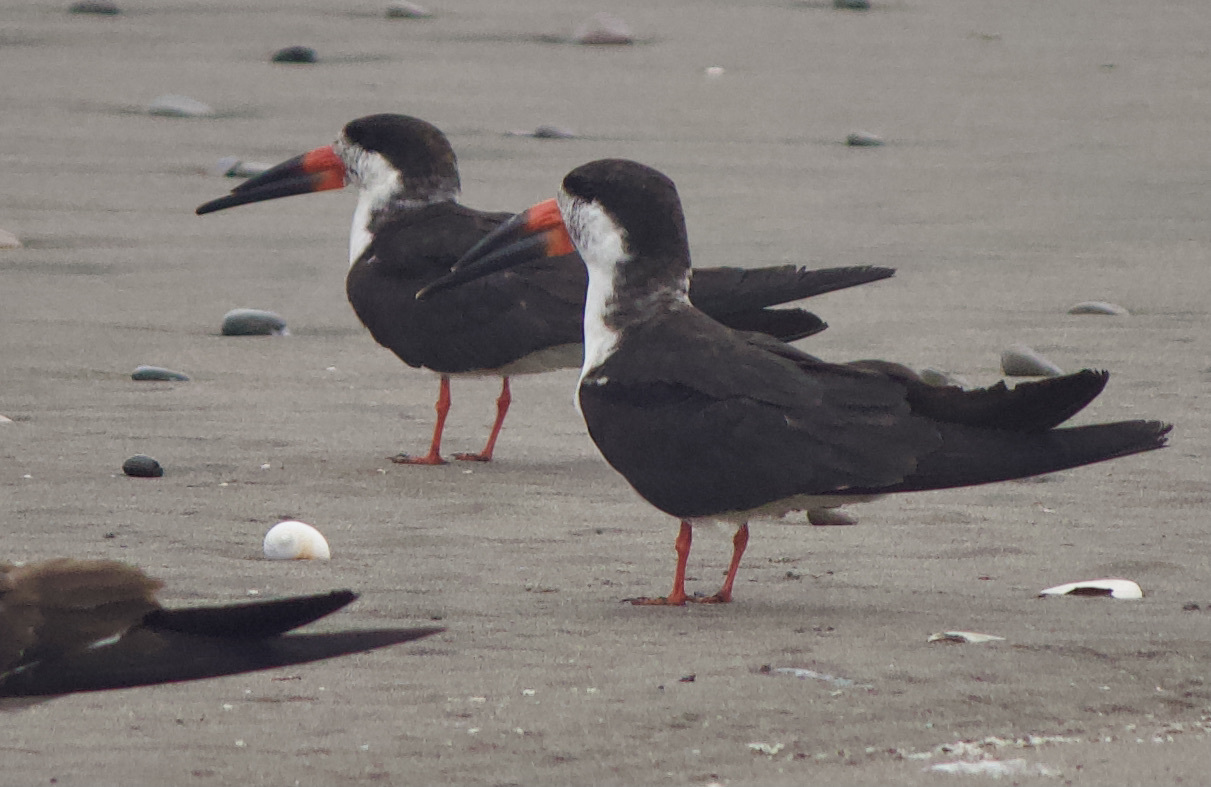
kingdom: Animalia
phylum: Chordata
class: Aves
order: Charadriiformes
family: Laridae
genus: Rynchops
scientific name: Rynchops niger
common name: Black skimmer
